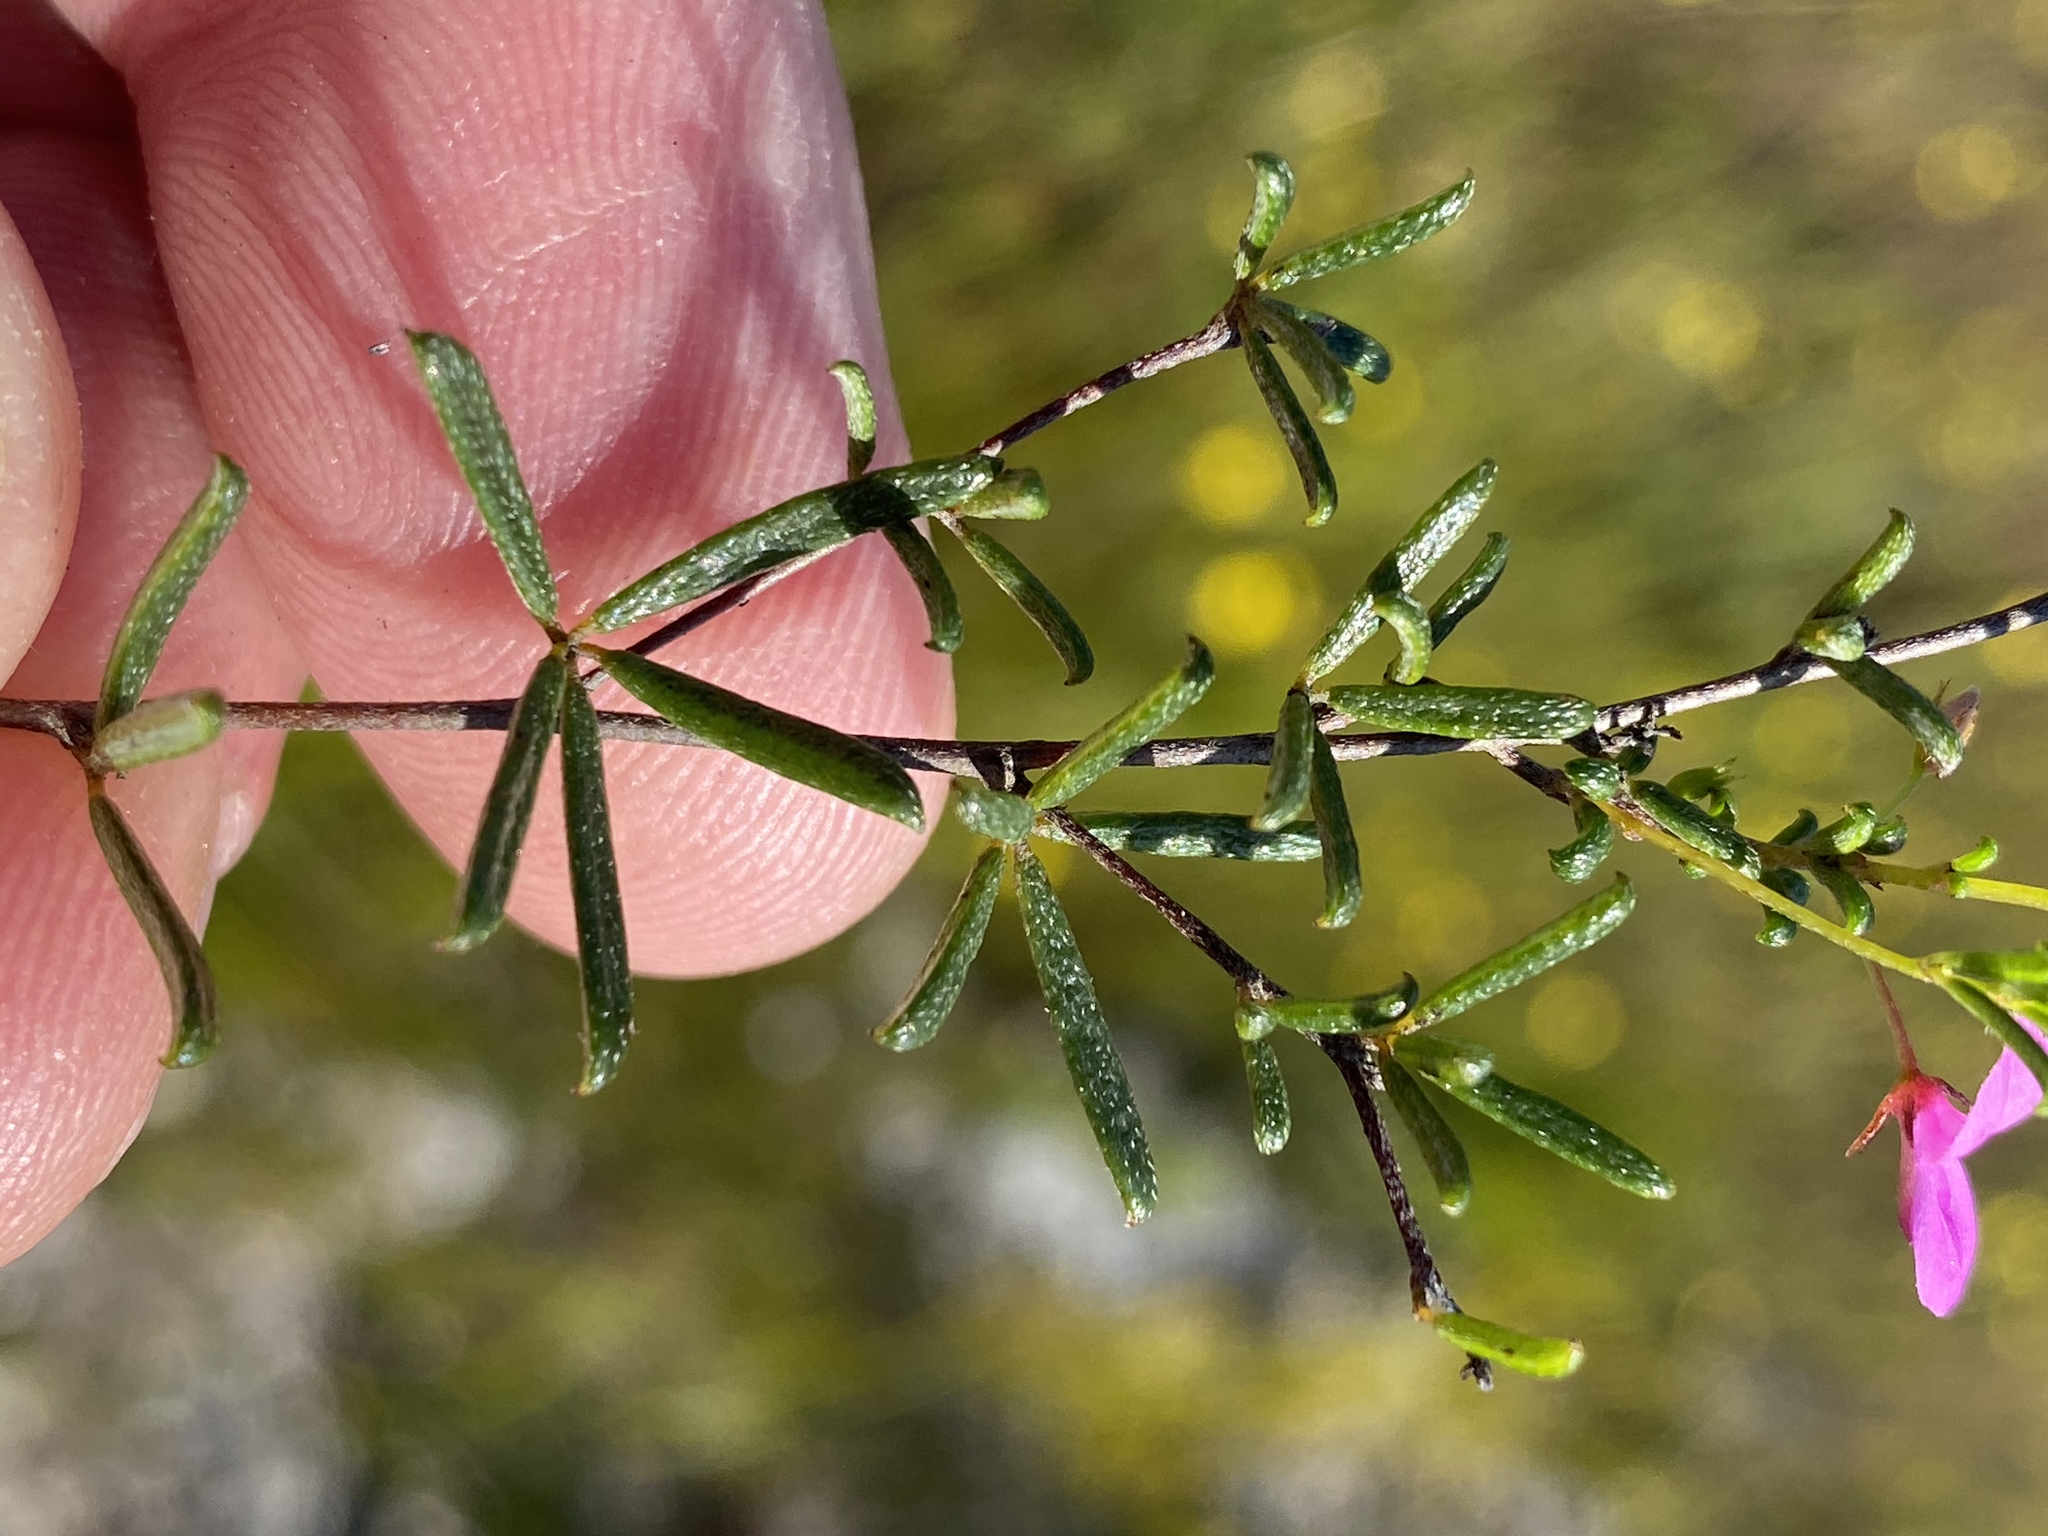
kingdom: Plantae
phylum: Tracheophyta
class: Magnoliopsida
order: Fabales
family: Fabaceae
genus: Indigofera
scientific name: Indigofera setosa
